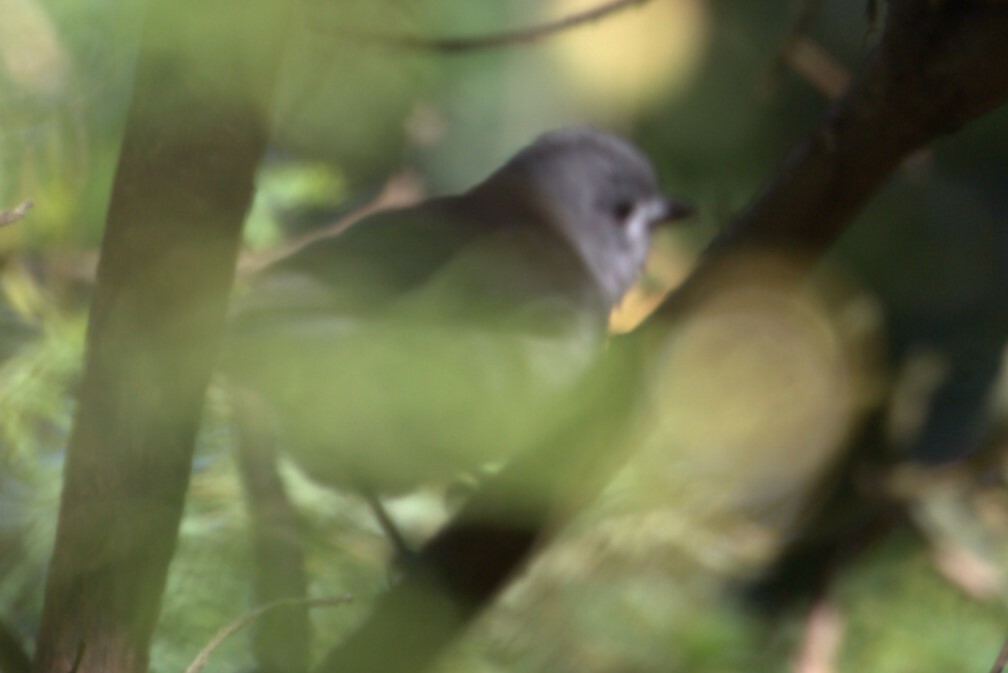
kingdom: Animalia
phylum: Chordata
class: Aves
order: Passeriformes
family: Pachycephalidae
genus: Colluricincla
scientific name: Colluricincla harmonica
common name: Grey shrikethrush
